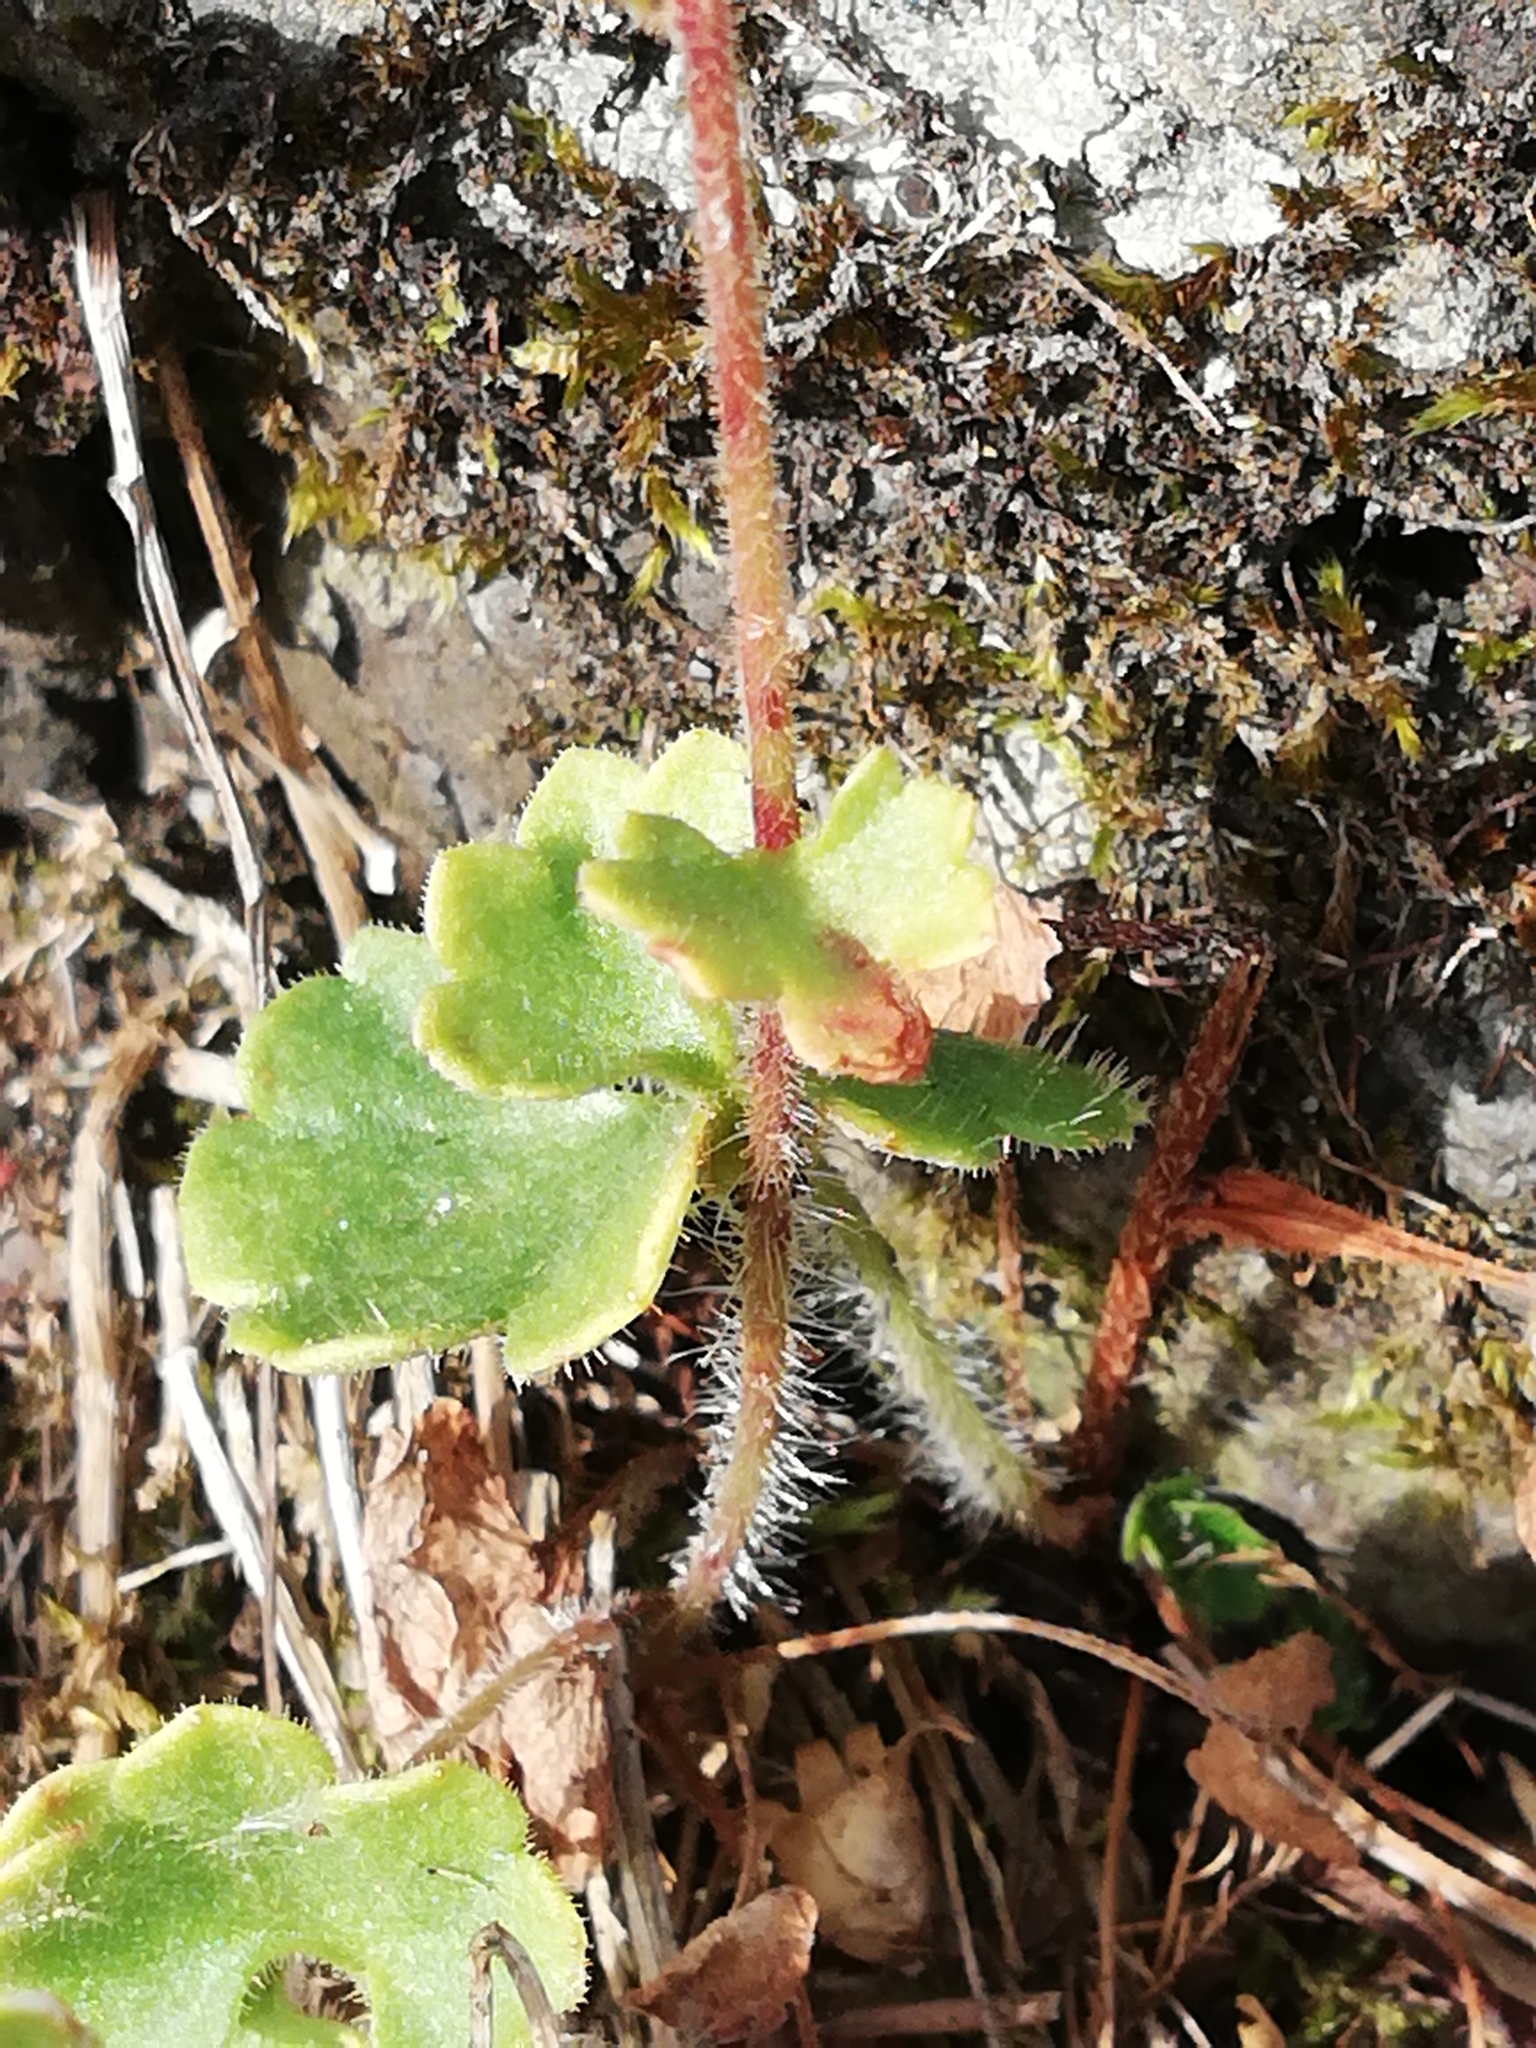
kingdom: Plantae
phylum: Tracheophyta
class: Magnoliopsida
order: Saxifragales
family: Saxifragaceae
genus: Saxifraga
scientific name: Saxifraga granulata
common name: Meadow saxifrage
